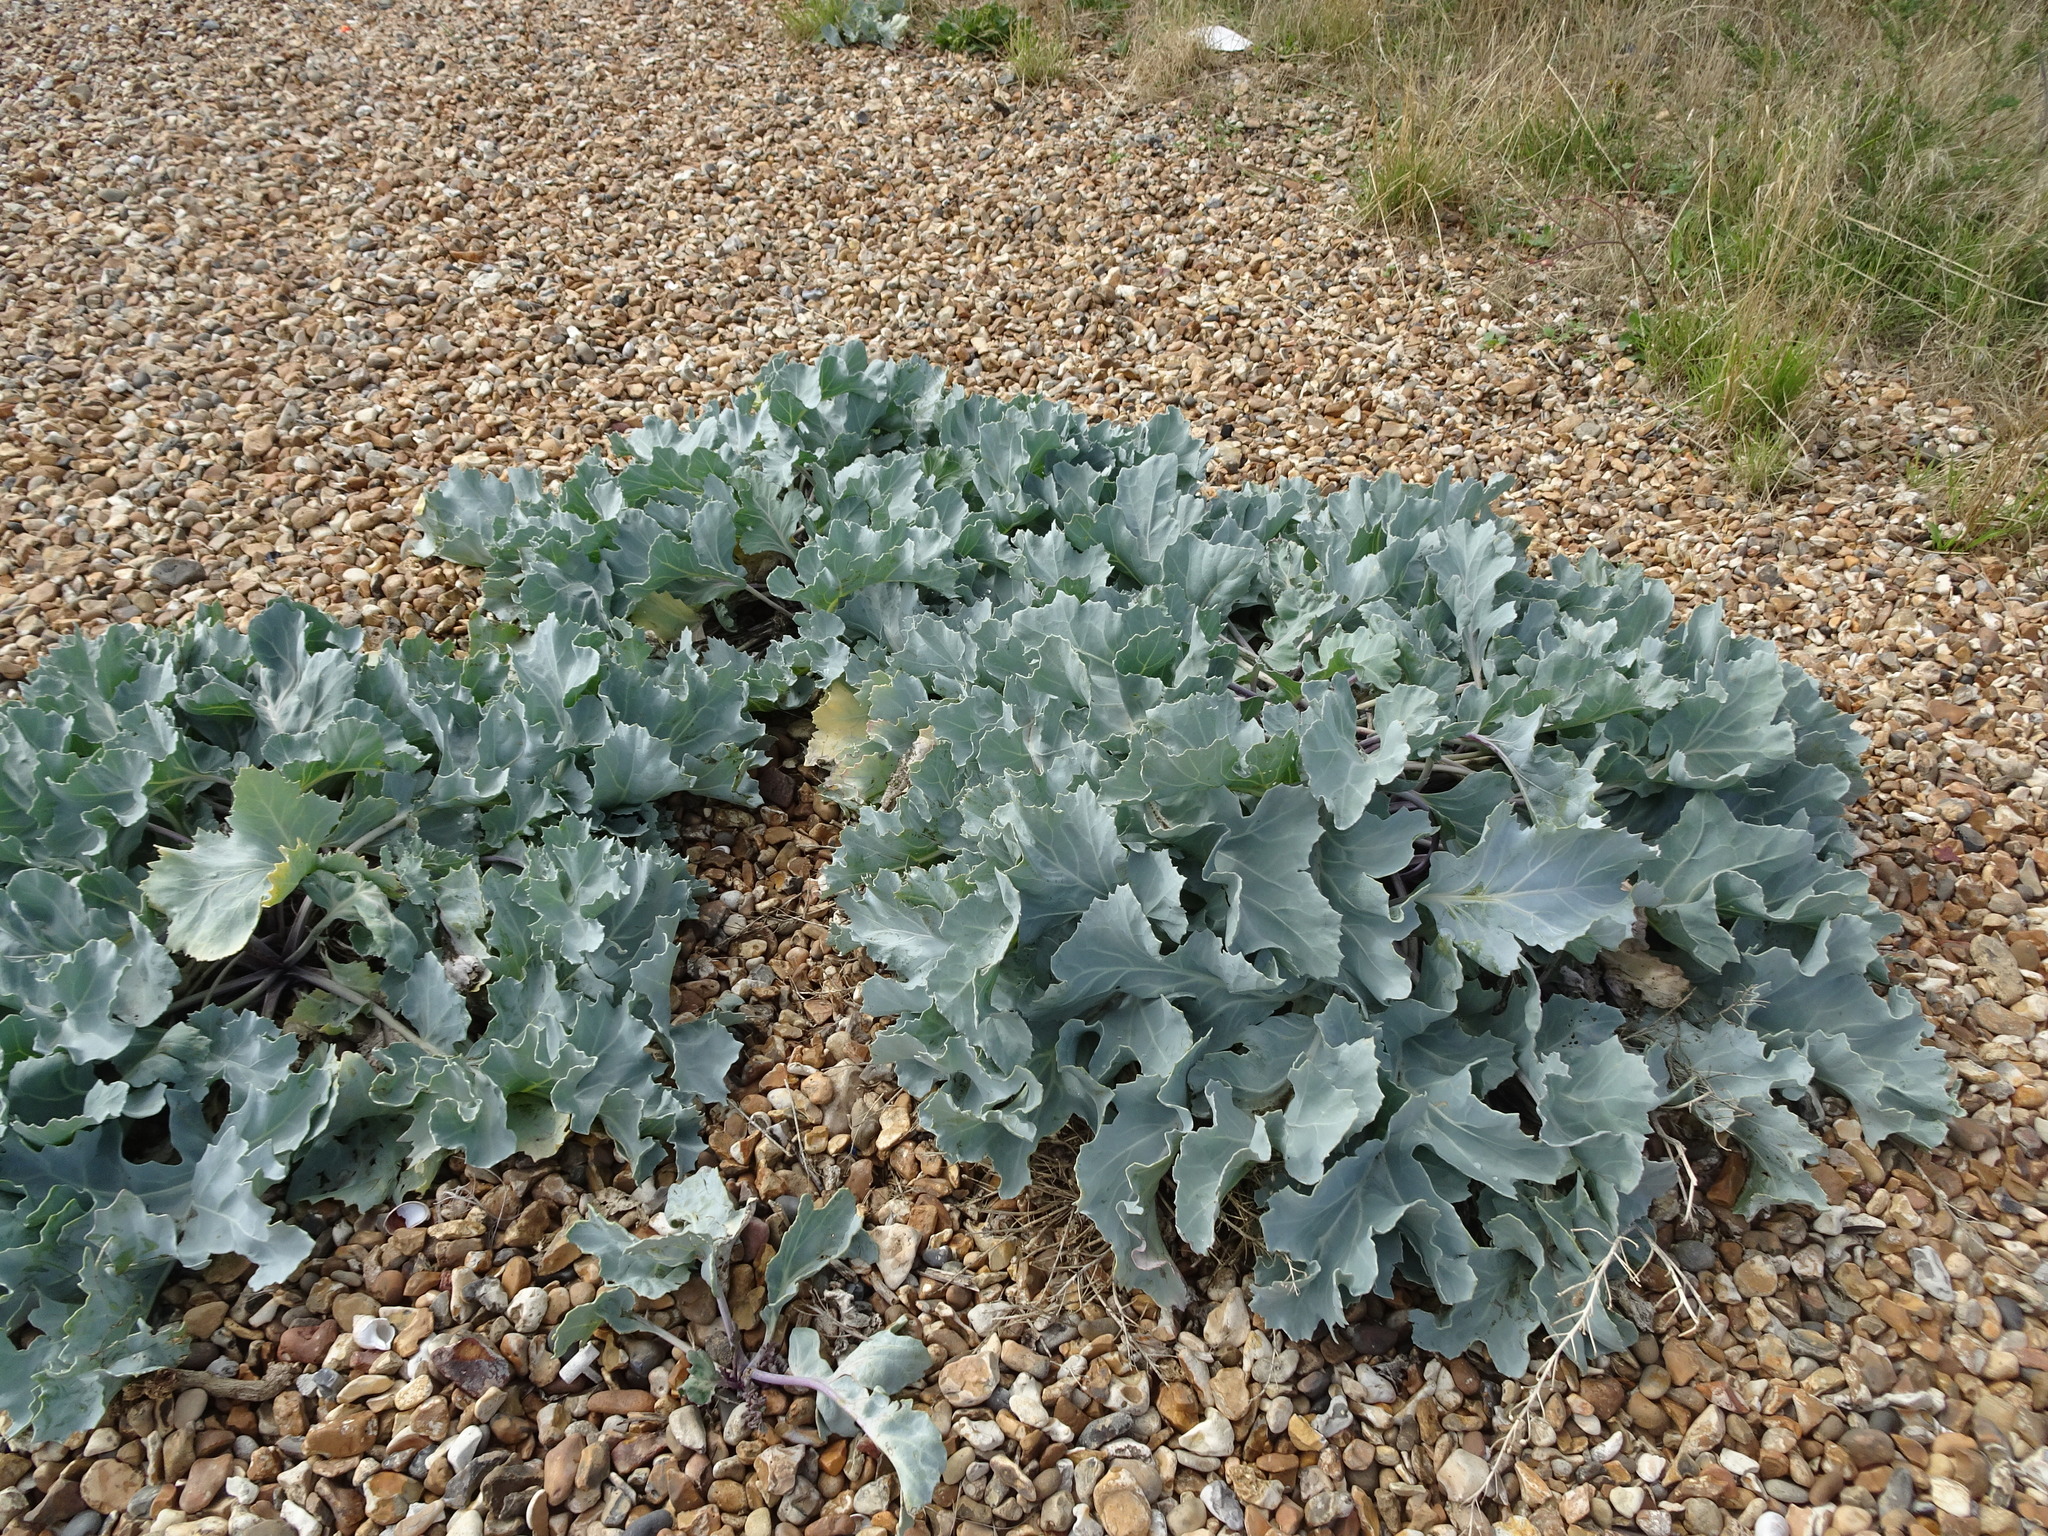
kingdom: Plantae
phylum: Tracheophyta
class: Magnoliopsida
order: Brassicales
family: Brassicaceae
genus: Crambe
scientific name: Crambe maritima
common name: Sea-kale
